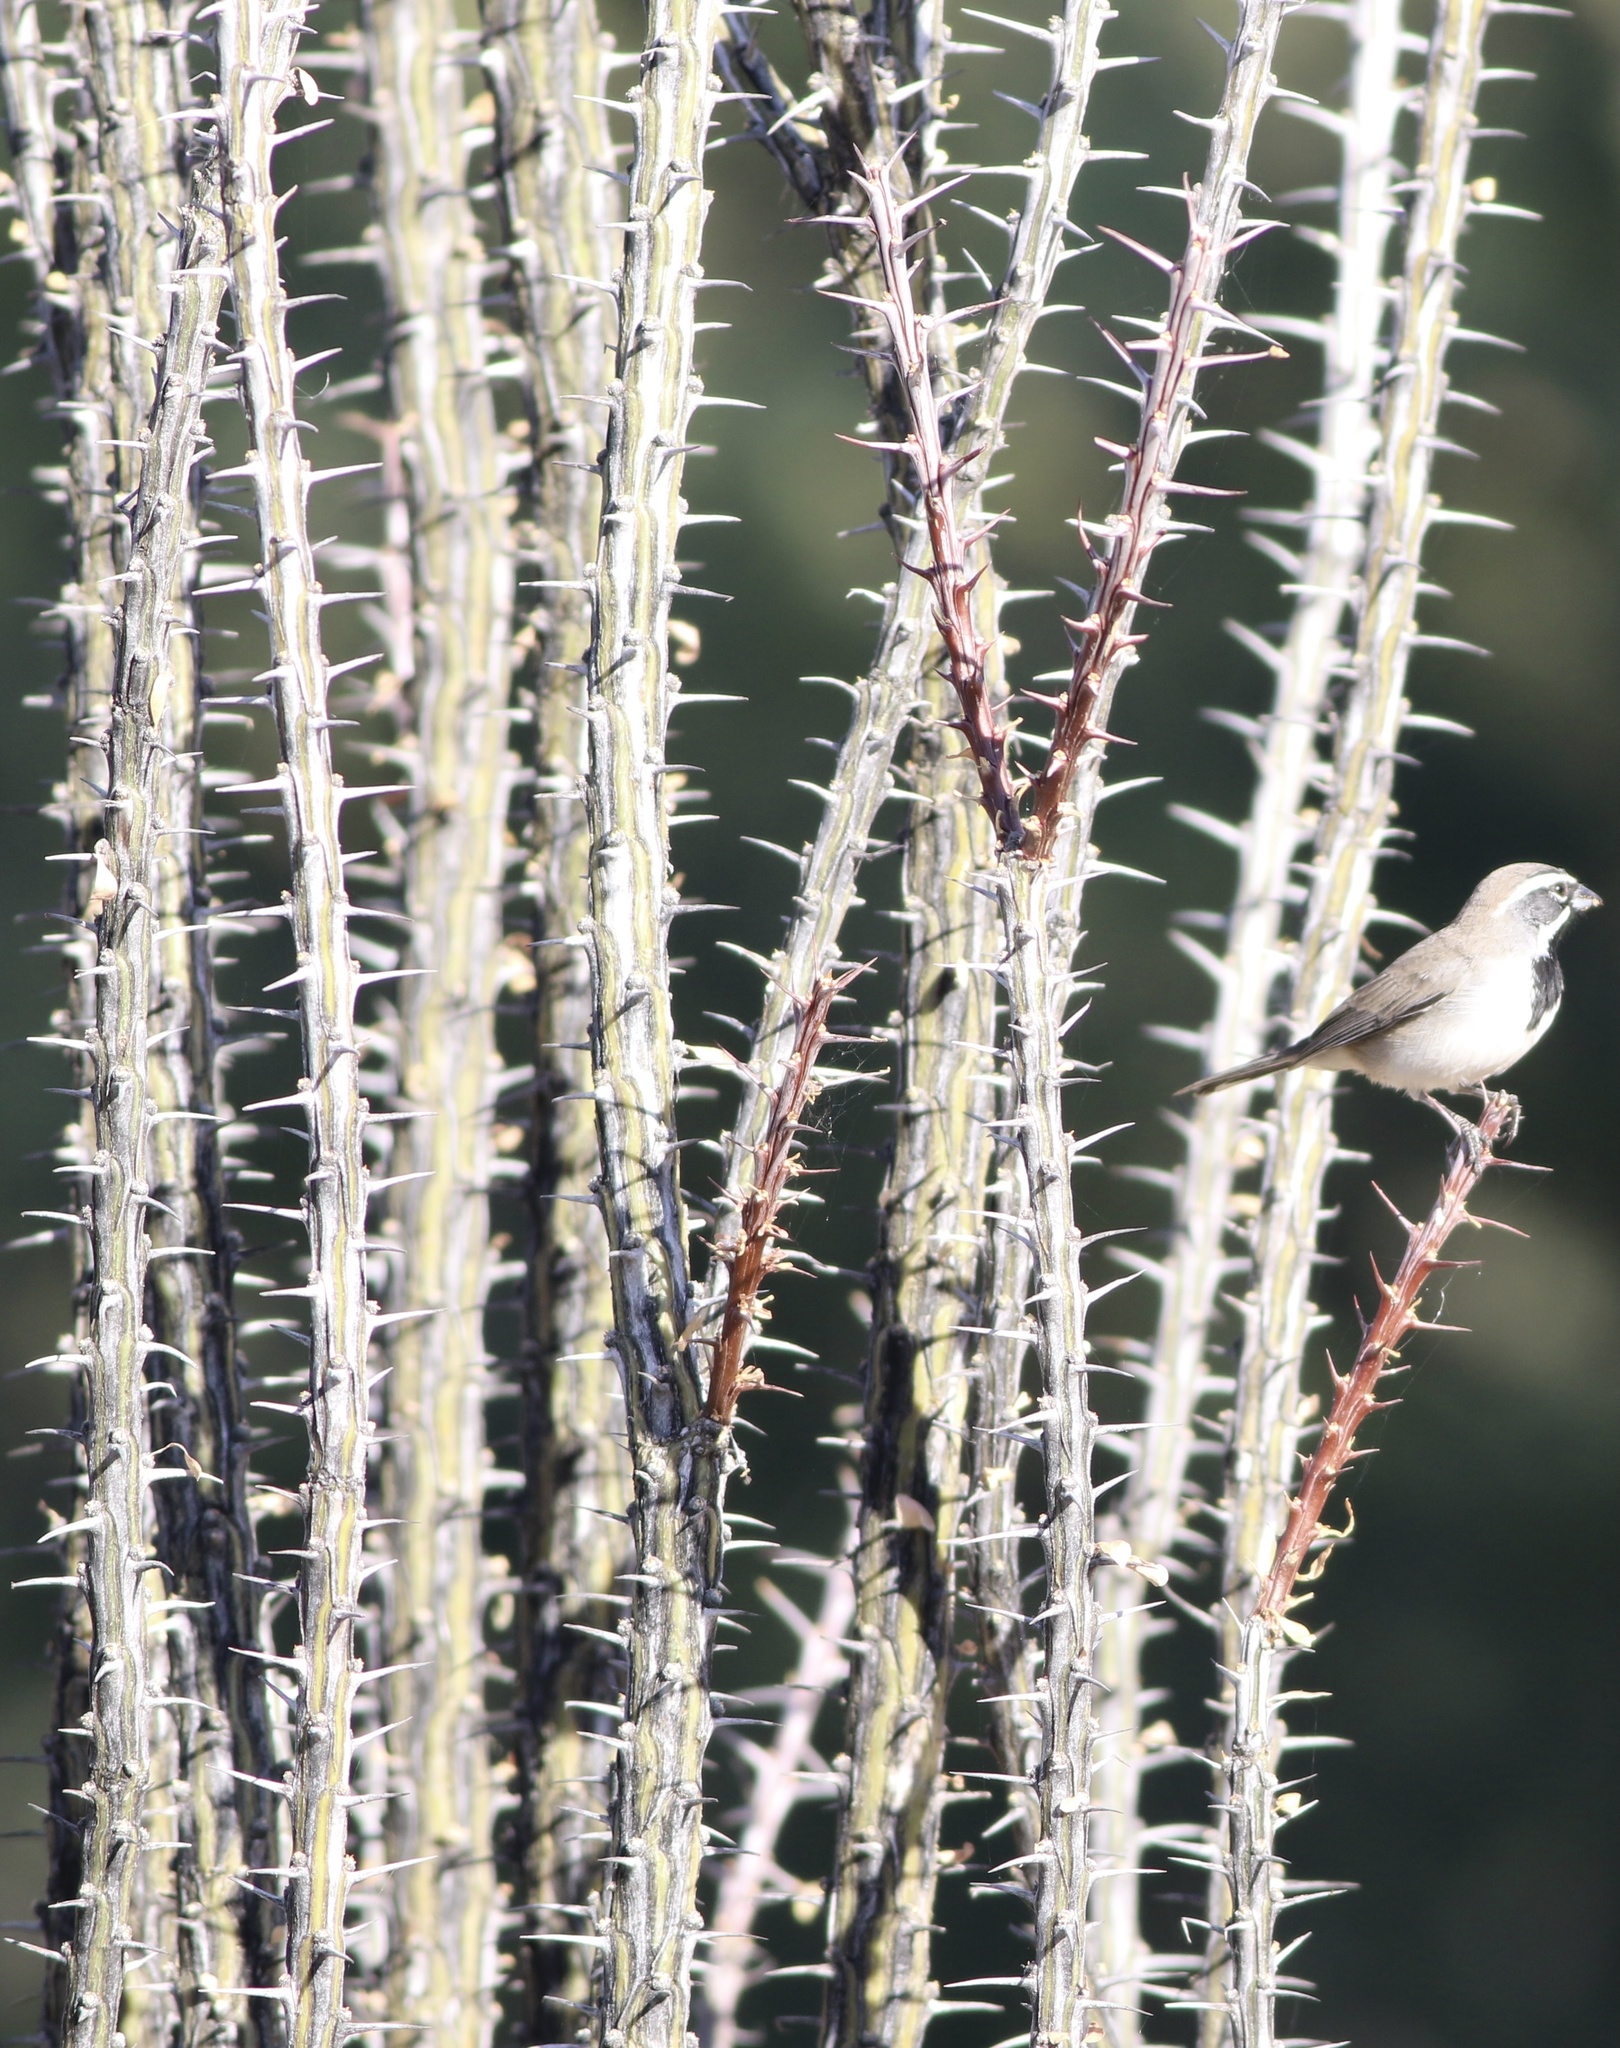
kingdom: Plantae
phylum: Tracheophyta
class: Magnoliopsida
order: Ericales
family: Fouquieriaceae
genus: Fouquieria
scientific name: Fouquieria splendens
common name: Vine-cactus
